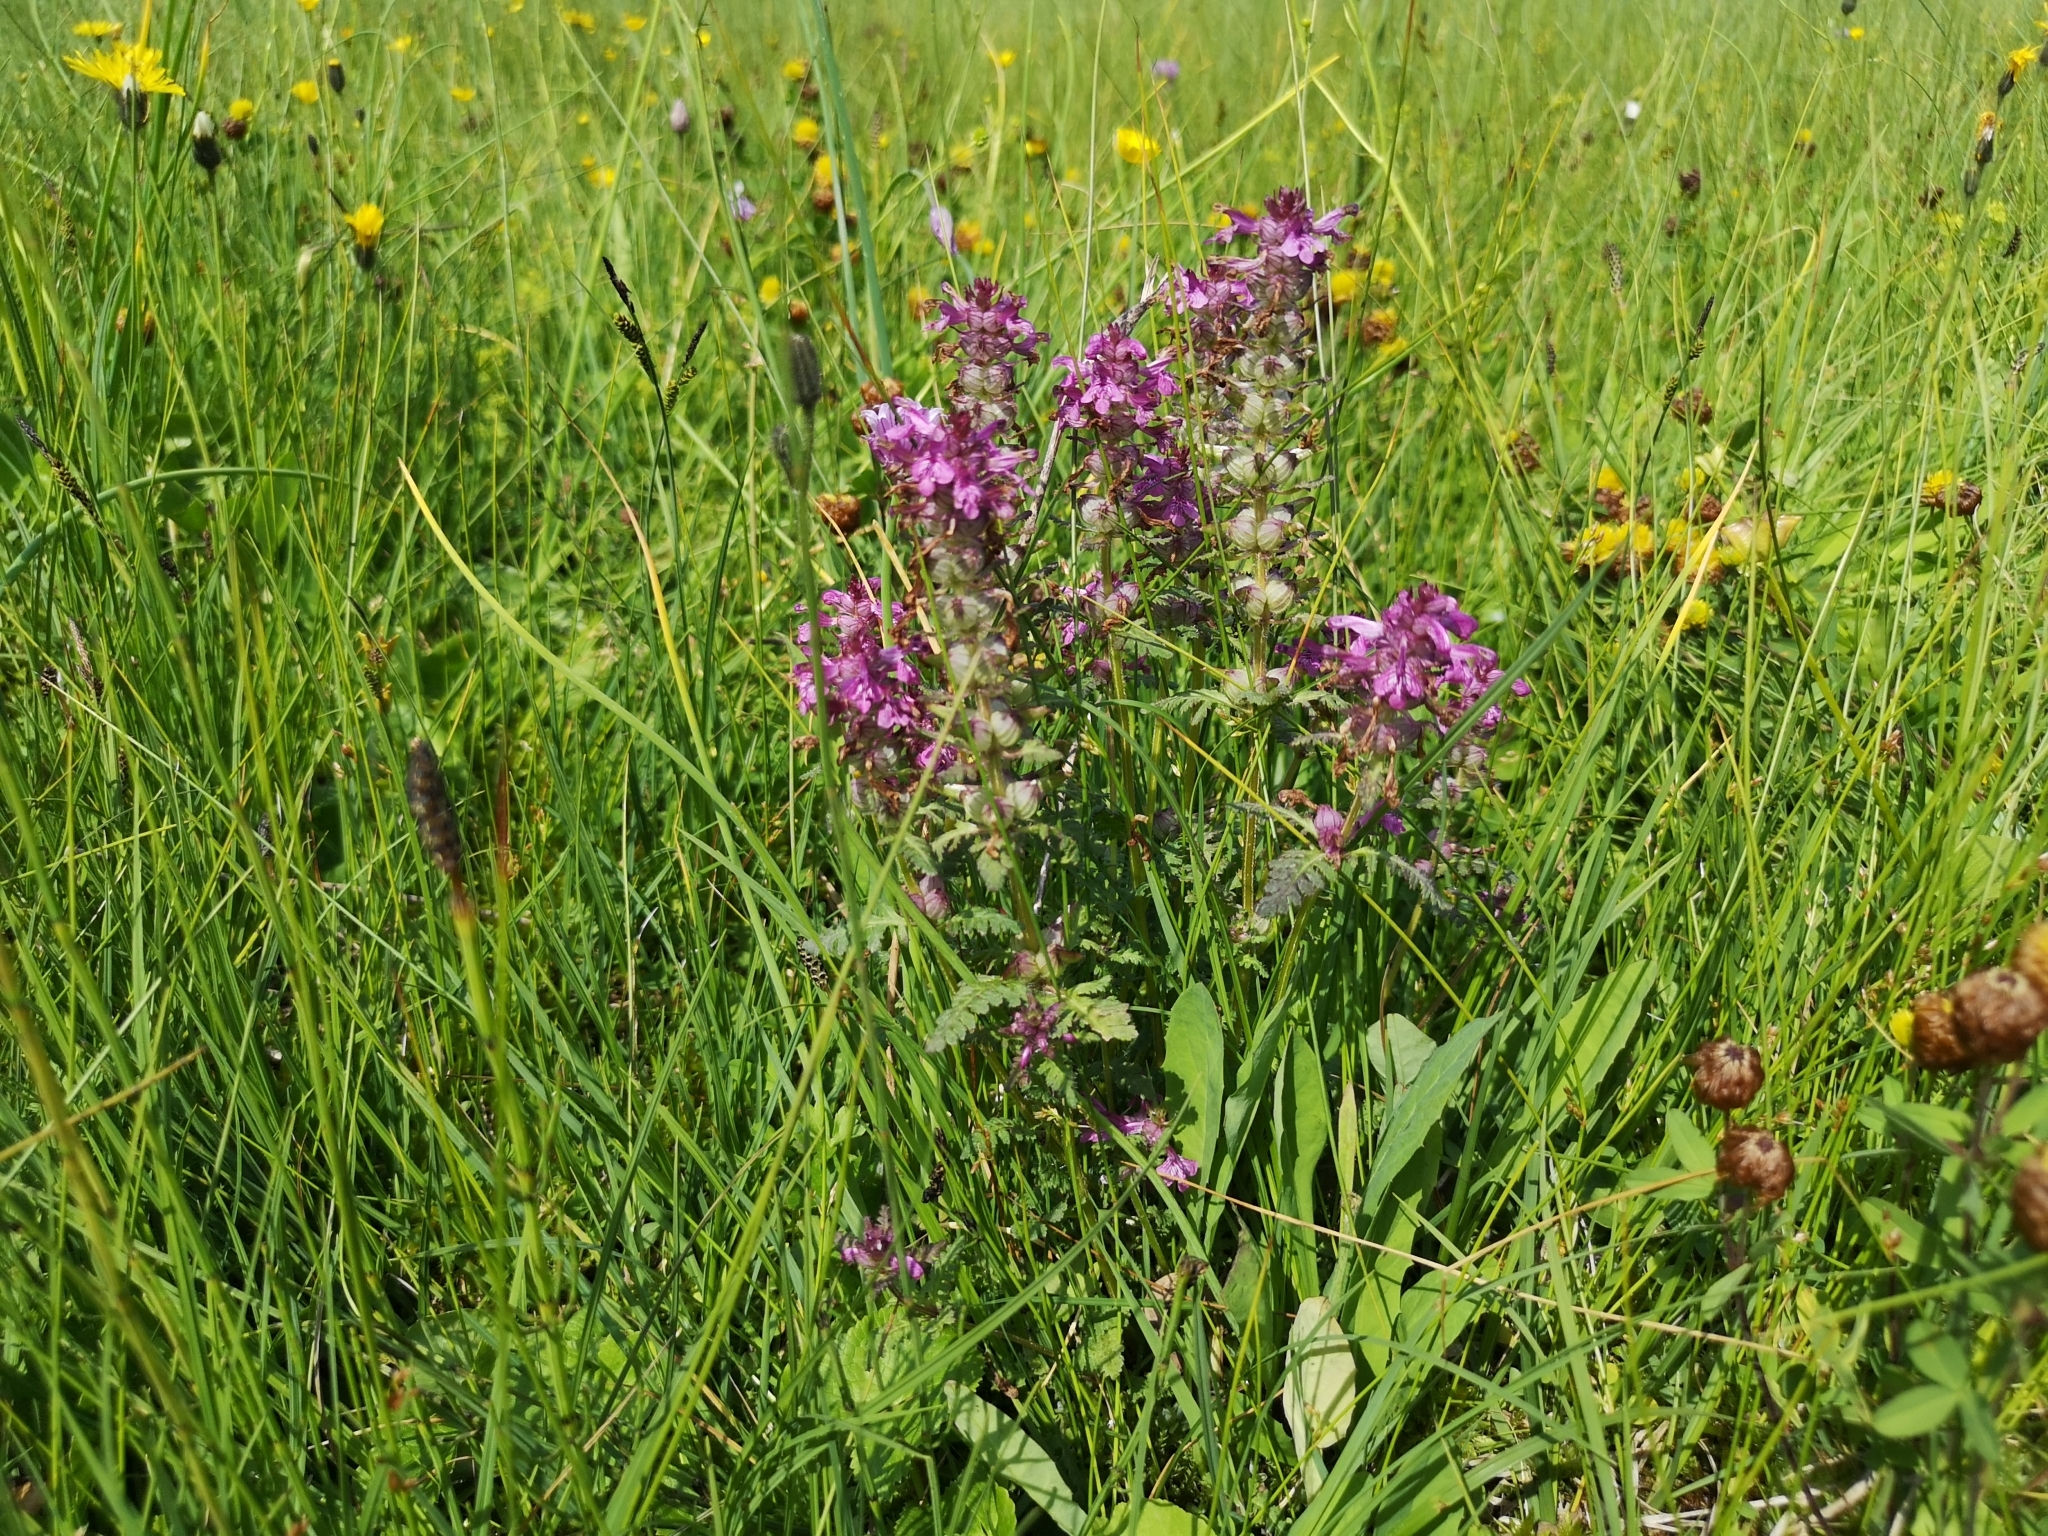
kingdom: Plantae
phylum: Tracheophyta
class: Magnoliopsida
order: Lamiales
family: Orobanchaceae
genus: Pedicularis
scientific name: Pedicularis verticillata
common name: Whorled lousewort
